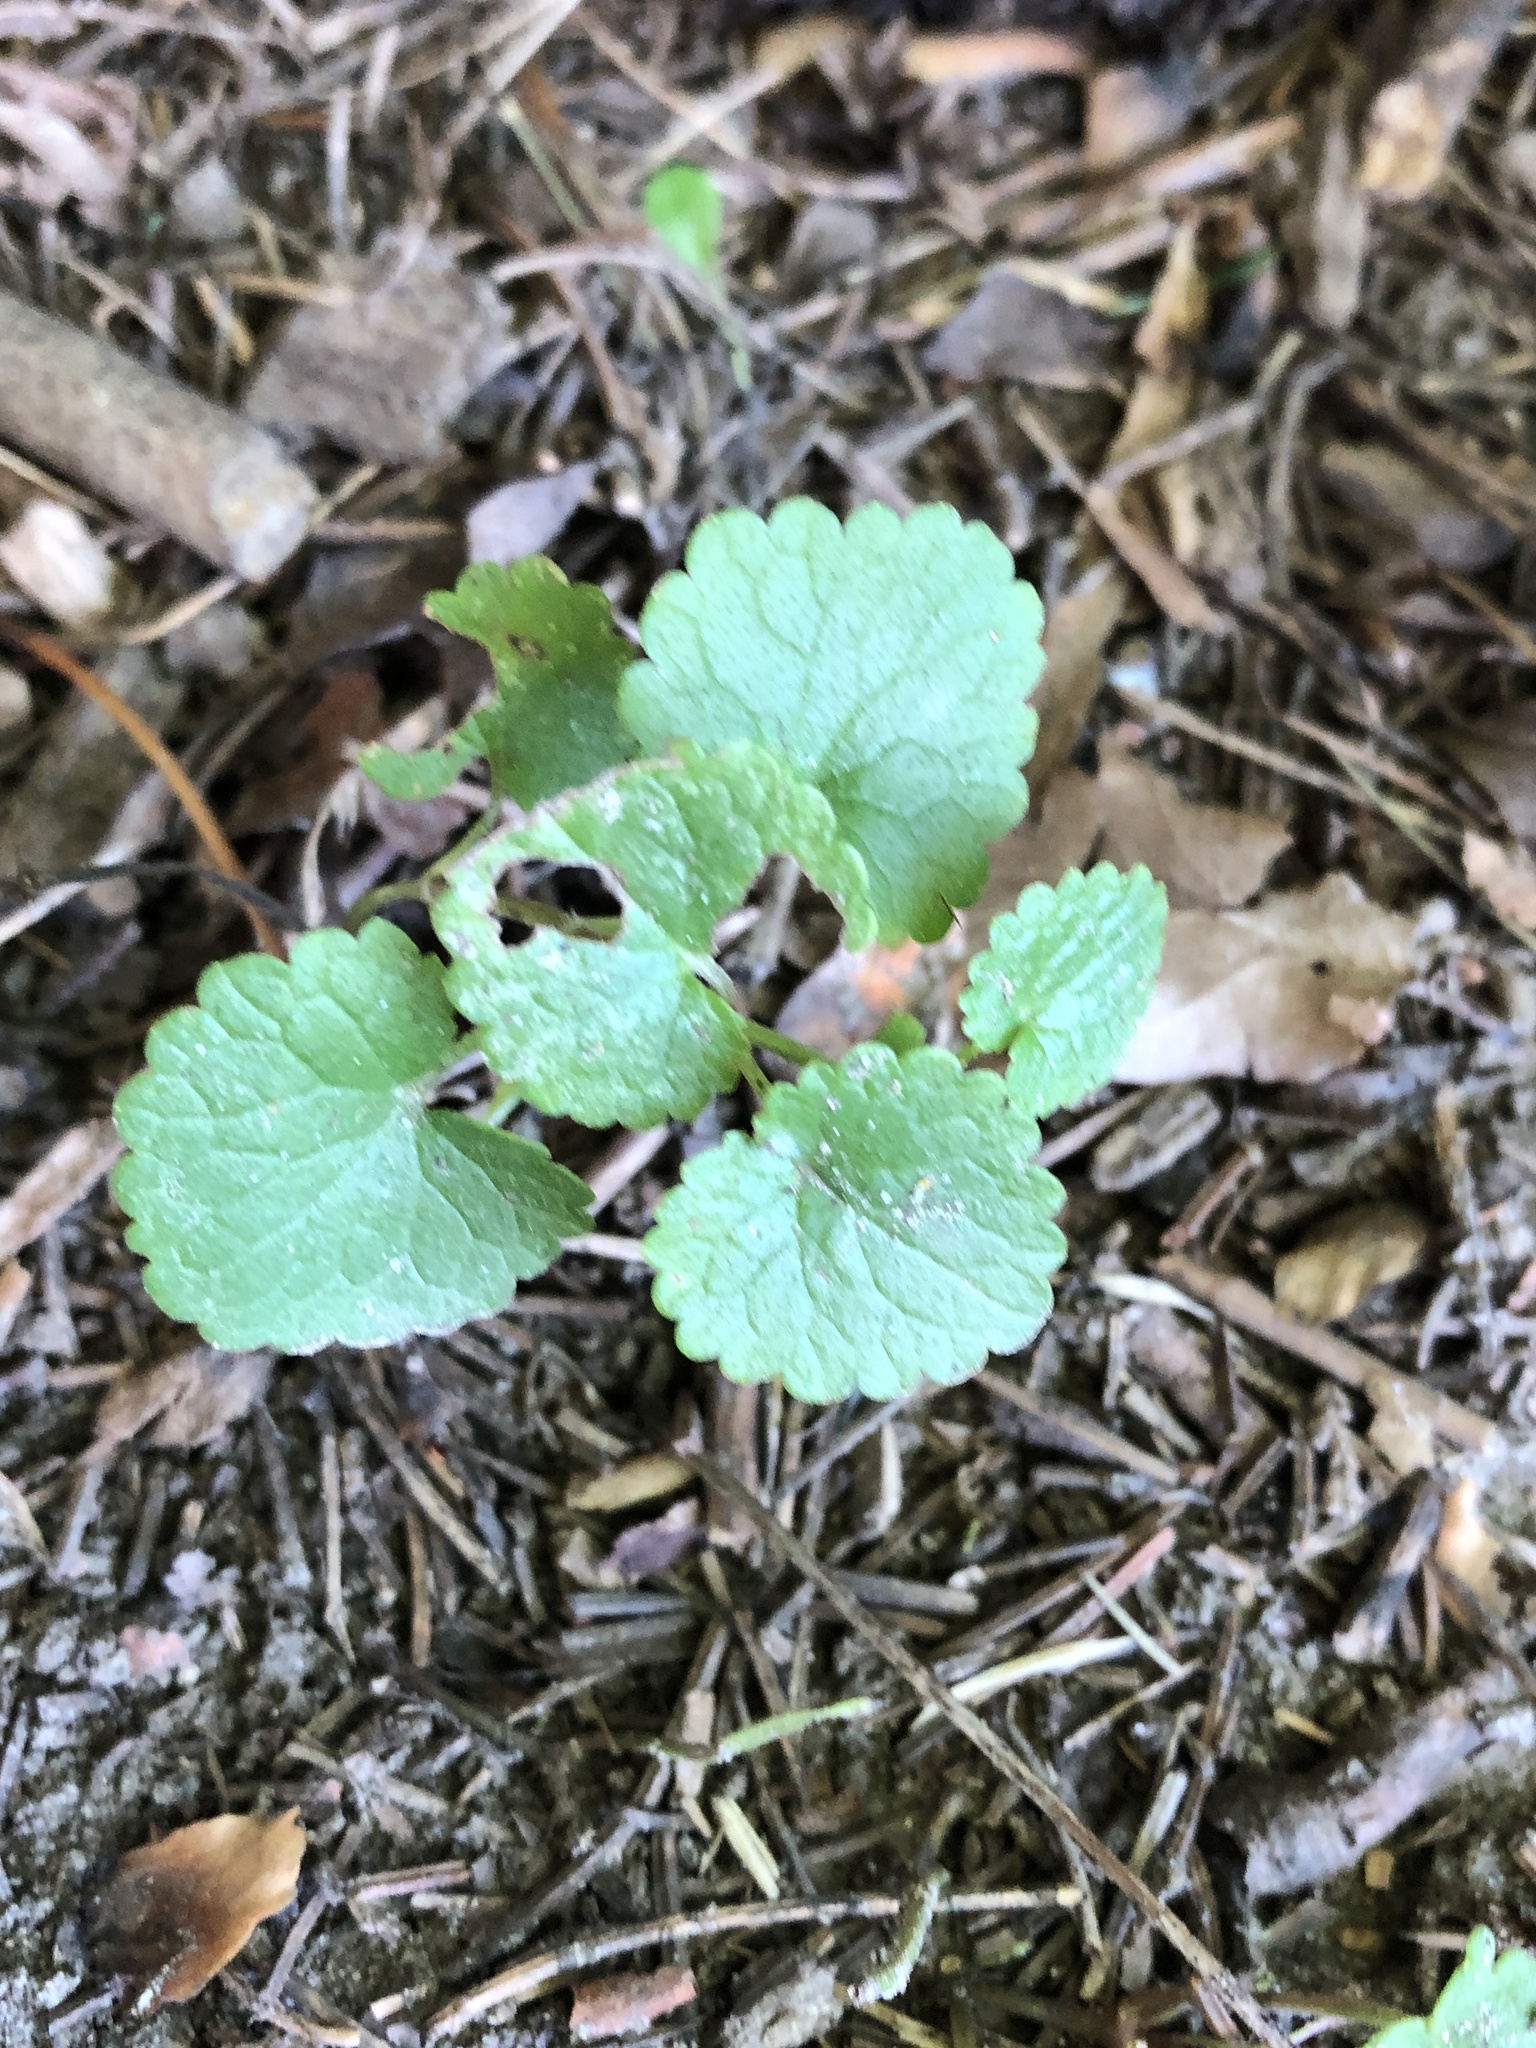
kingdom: Plantae
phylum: Tracheophyta
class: Magnoliopsida
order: Lamiales
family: Lamiaceae
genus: Glechoma
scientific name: Glechoma hederacea
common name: Ground ivy
